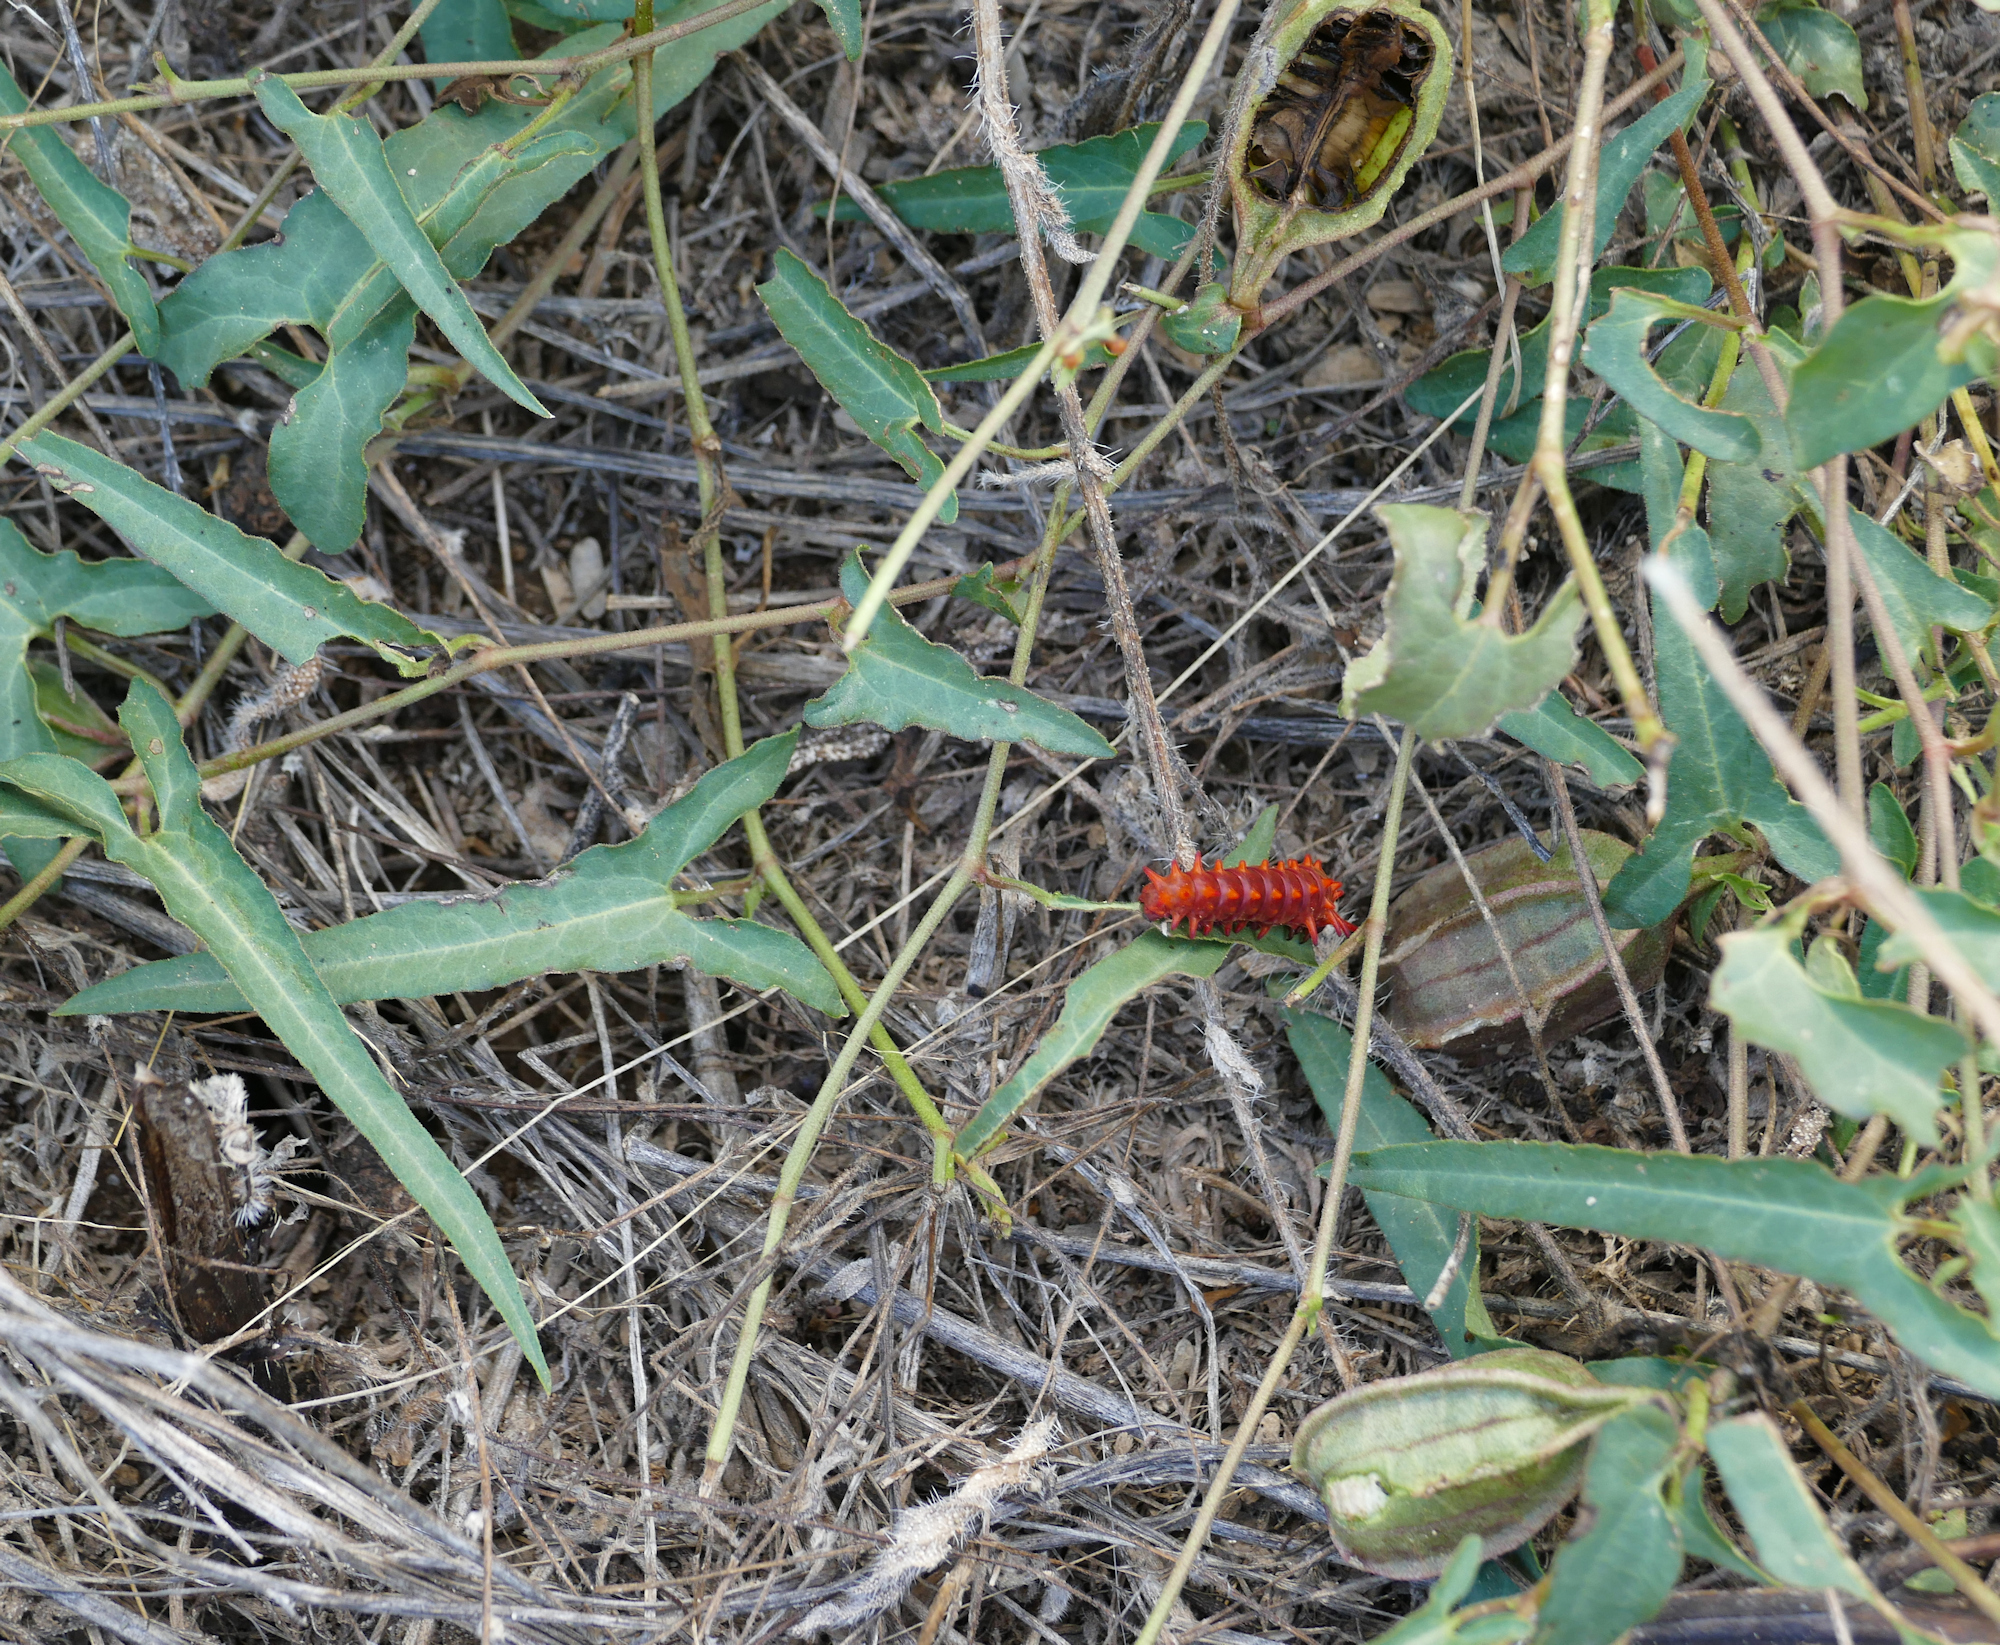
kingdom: Plantae
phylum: Tracheophyta
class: Magnoliopsida
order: Piperales
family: Aristolochiaceae
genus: Aristolochia
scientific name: Aristolochia watsonii
